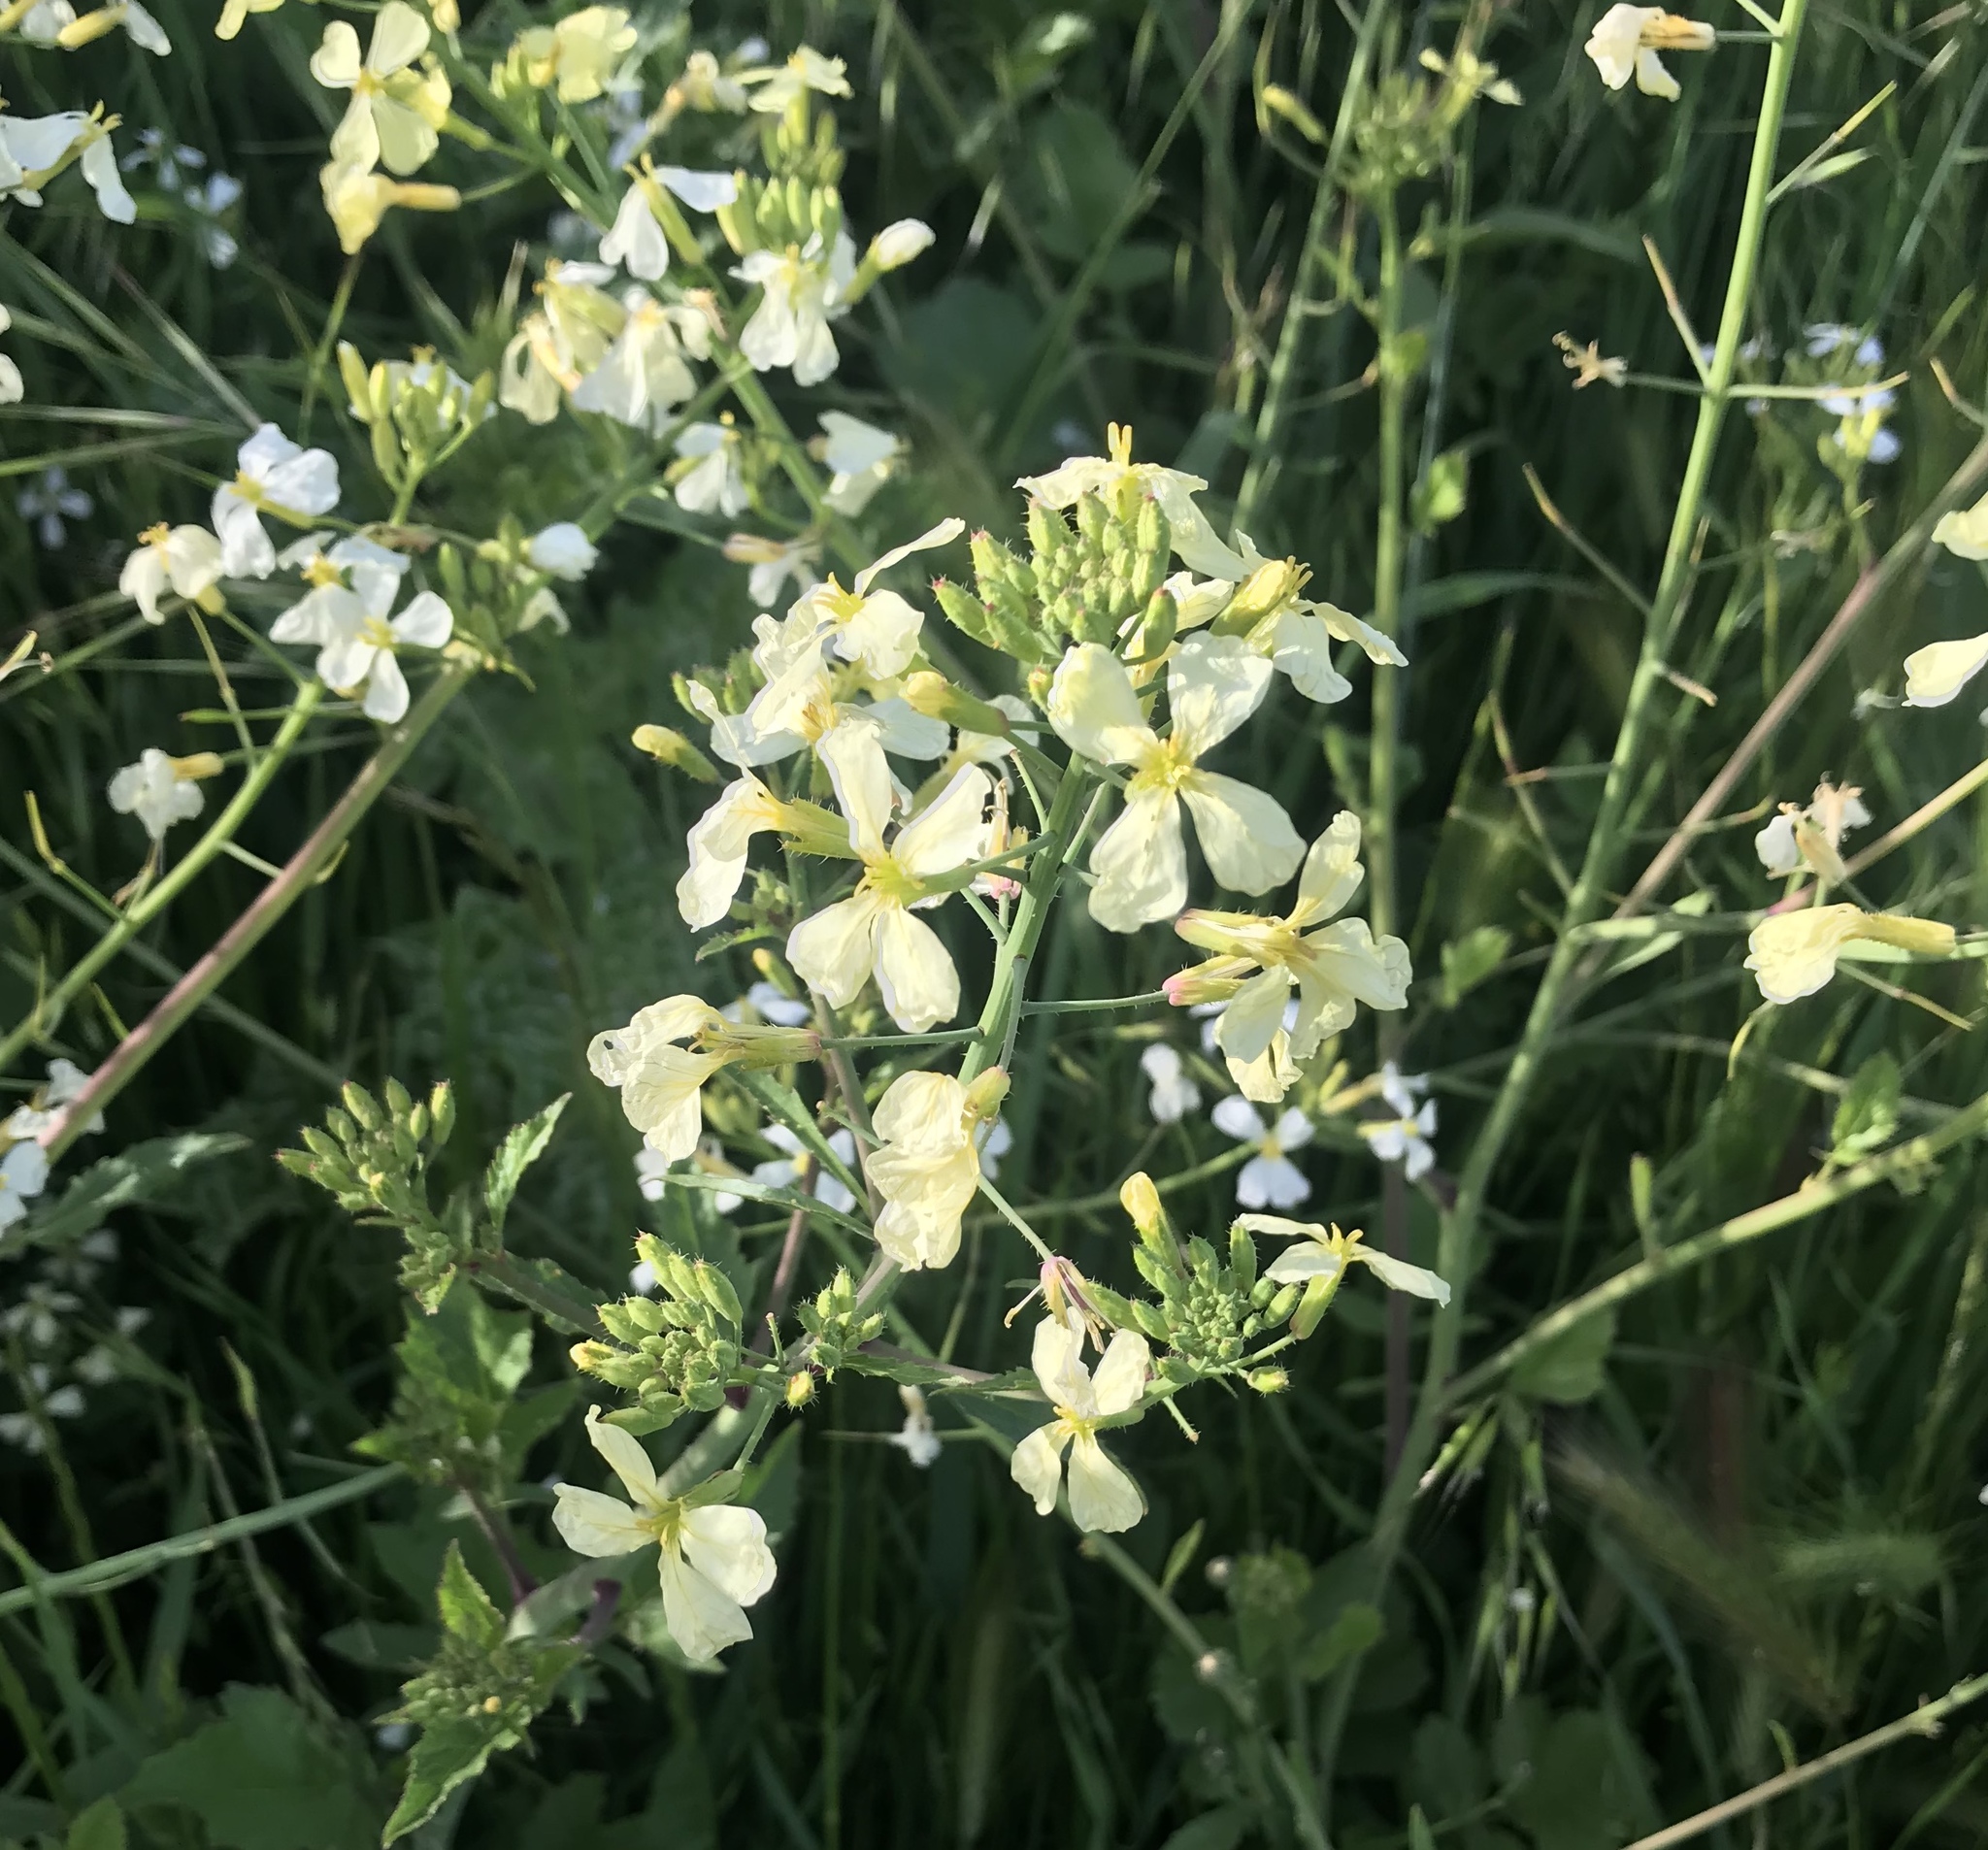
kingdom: Plantae
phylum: Tracheophyta
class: Magnoliopsida
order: Brassicales
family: Brassicaceae
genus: Raphanus
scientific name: Raphanus raphanistrum
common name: Wild radish
